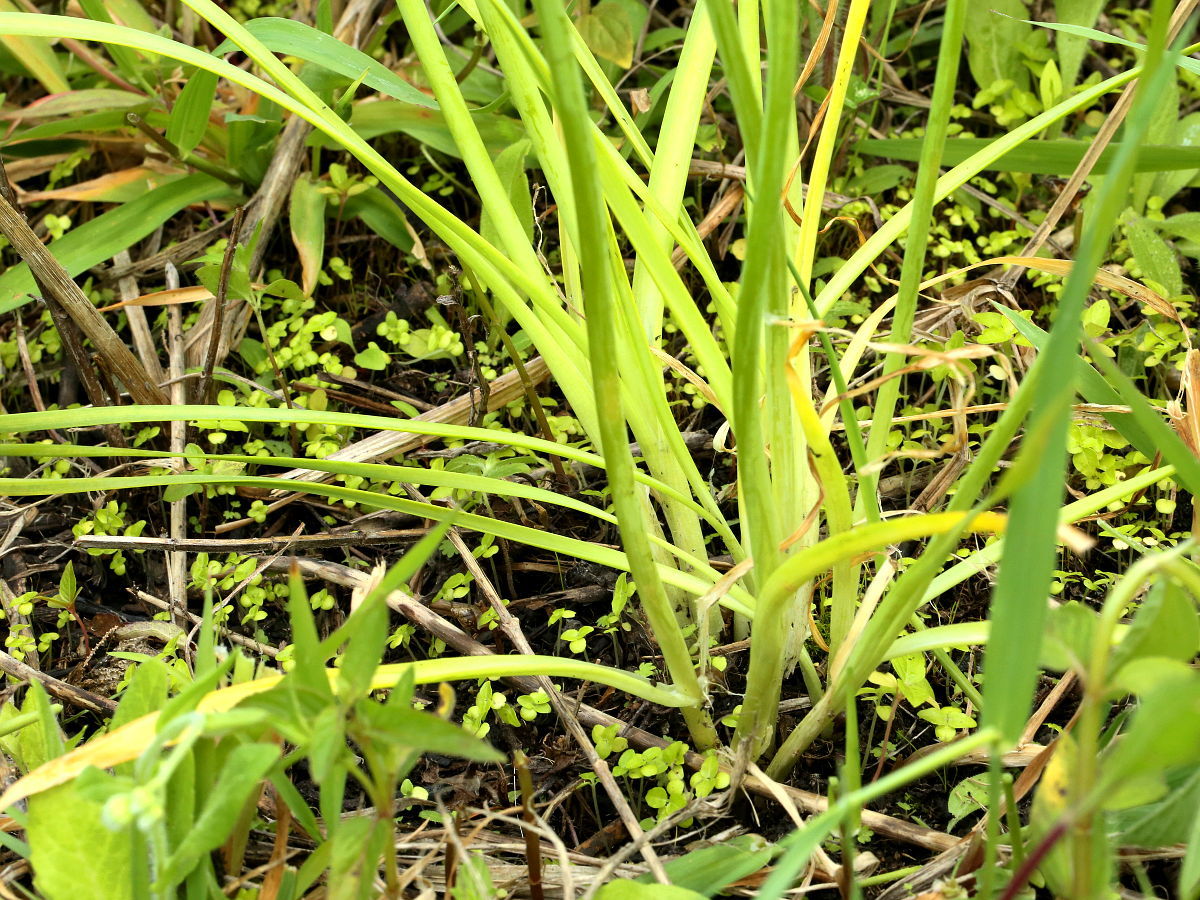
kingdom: Plantae
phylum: Tracheophyta
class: Liliopsida
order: Asparagales
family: Amaryllidaceae
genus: Allium
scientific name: Allium canadense
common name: Meadow garlic
